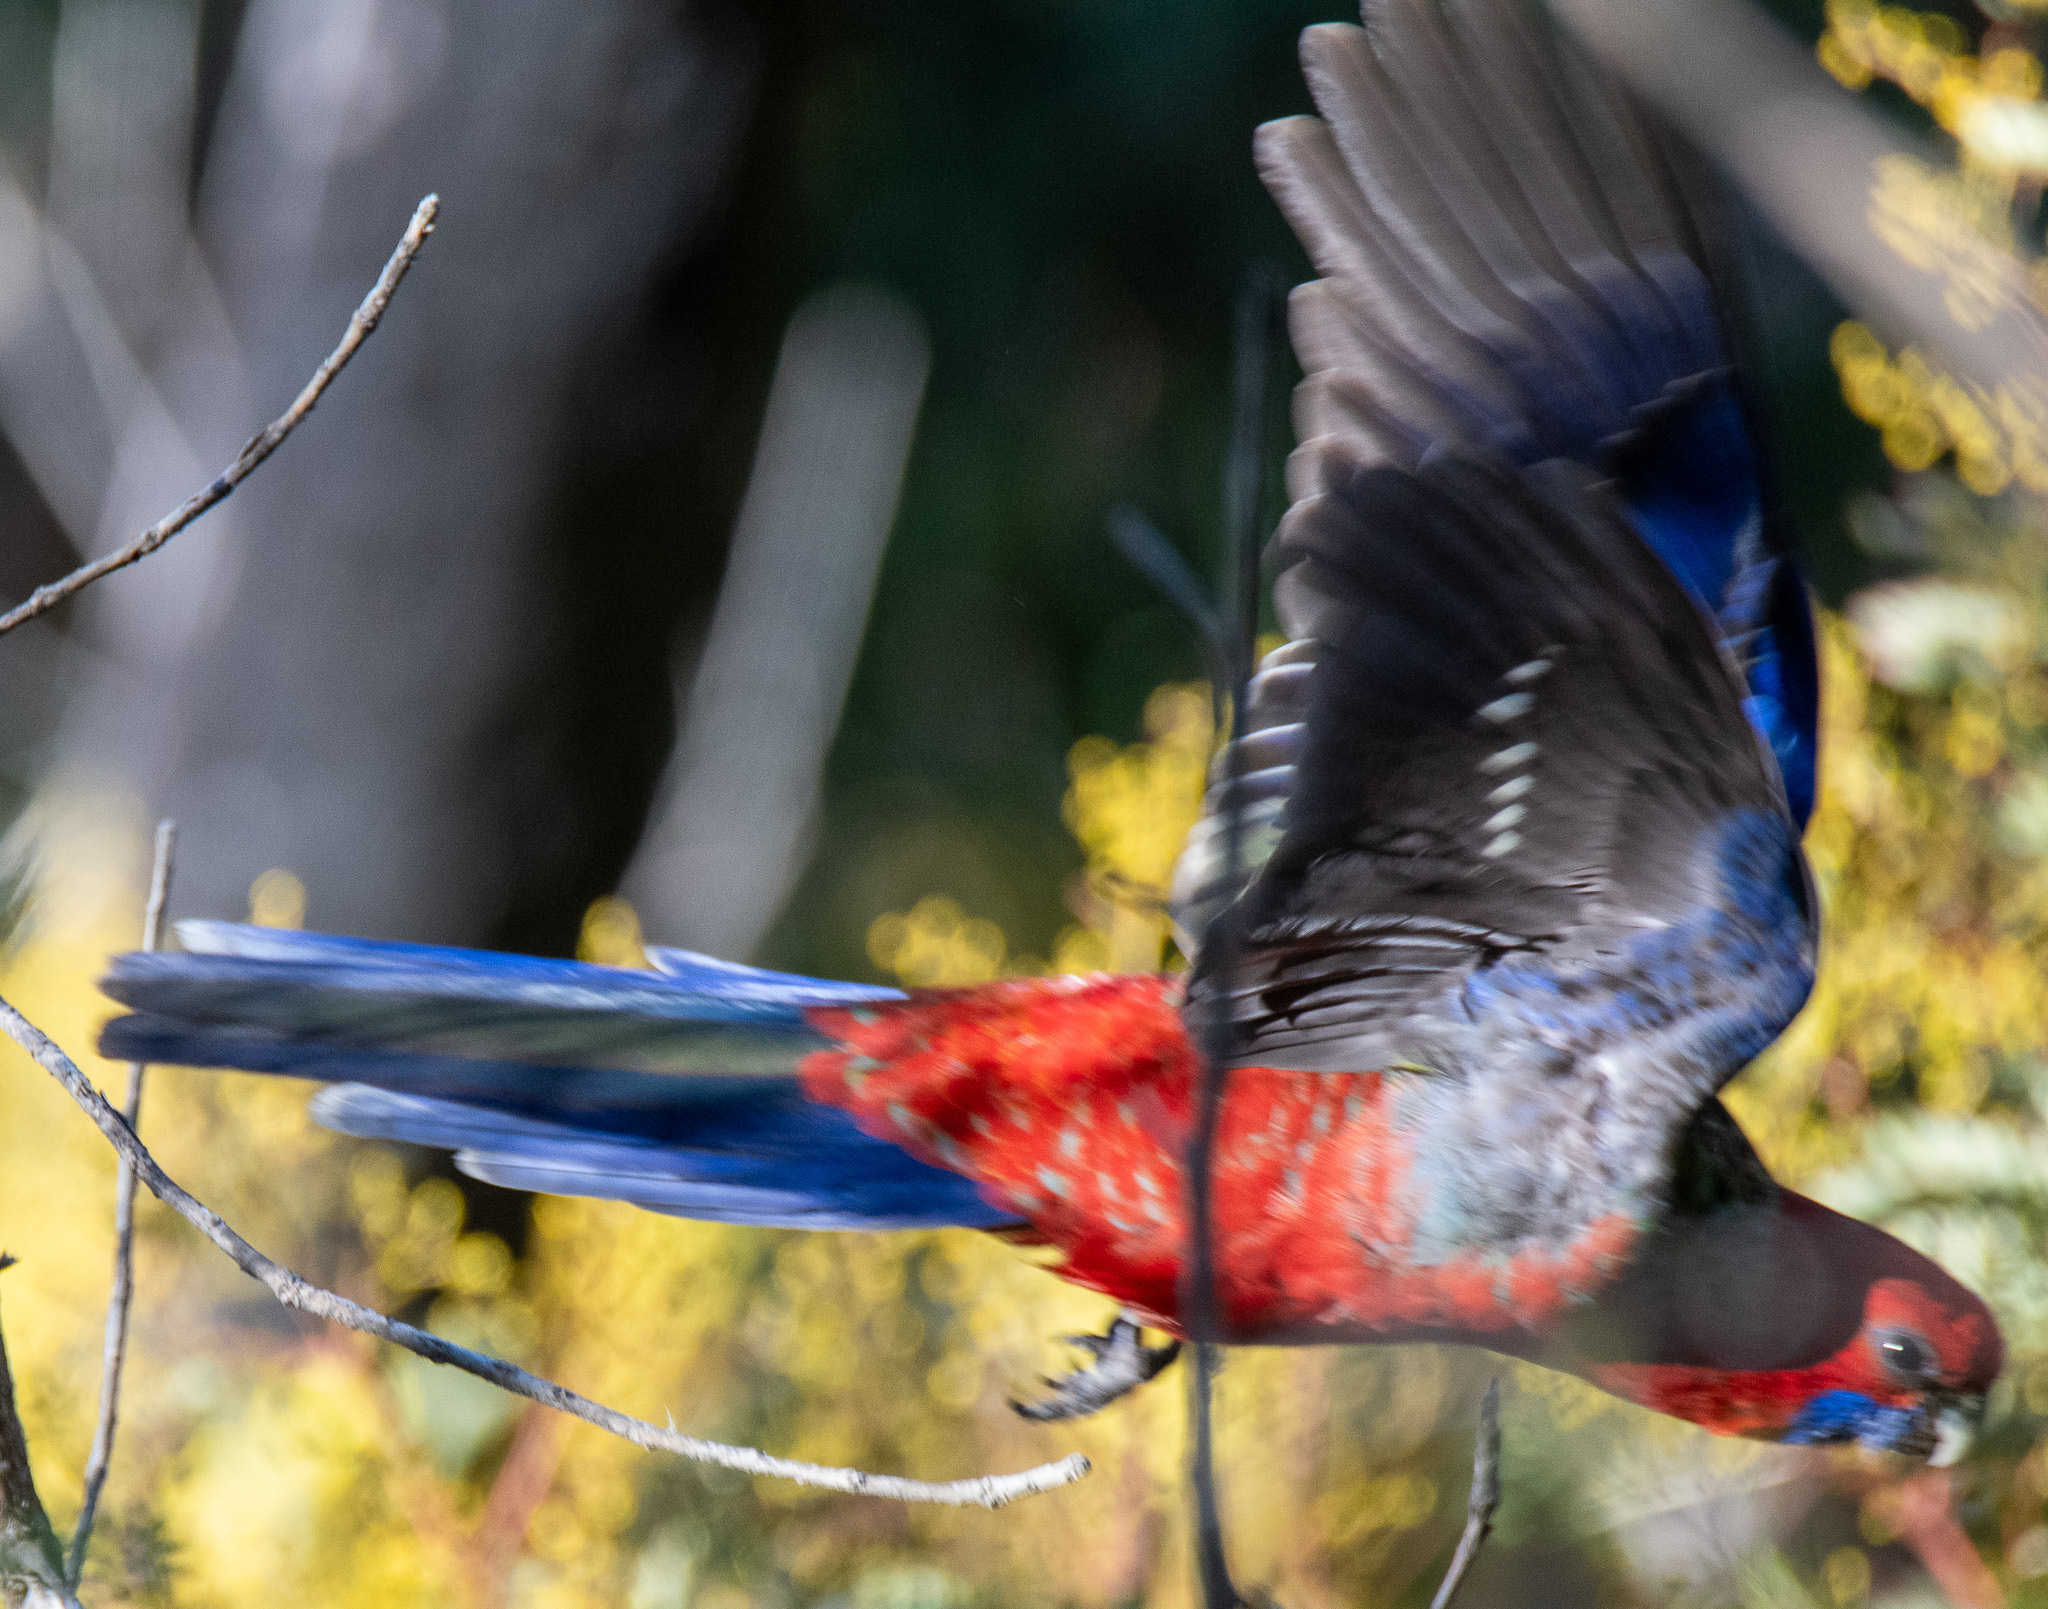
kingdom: Animalia
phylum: Chordata
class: Aves
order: Psittaciformes
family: Psittacidae
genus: Platycercus
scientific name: Platycercus elegans
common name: Crimson rosella
